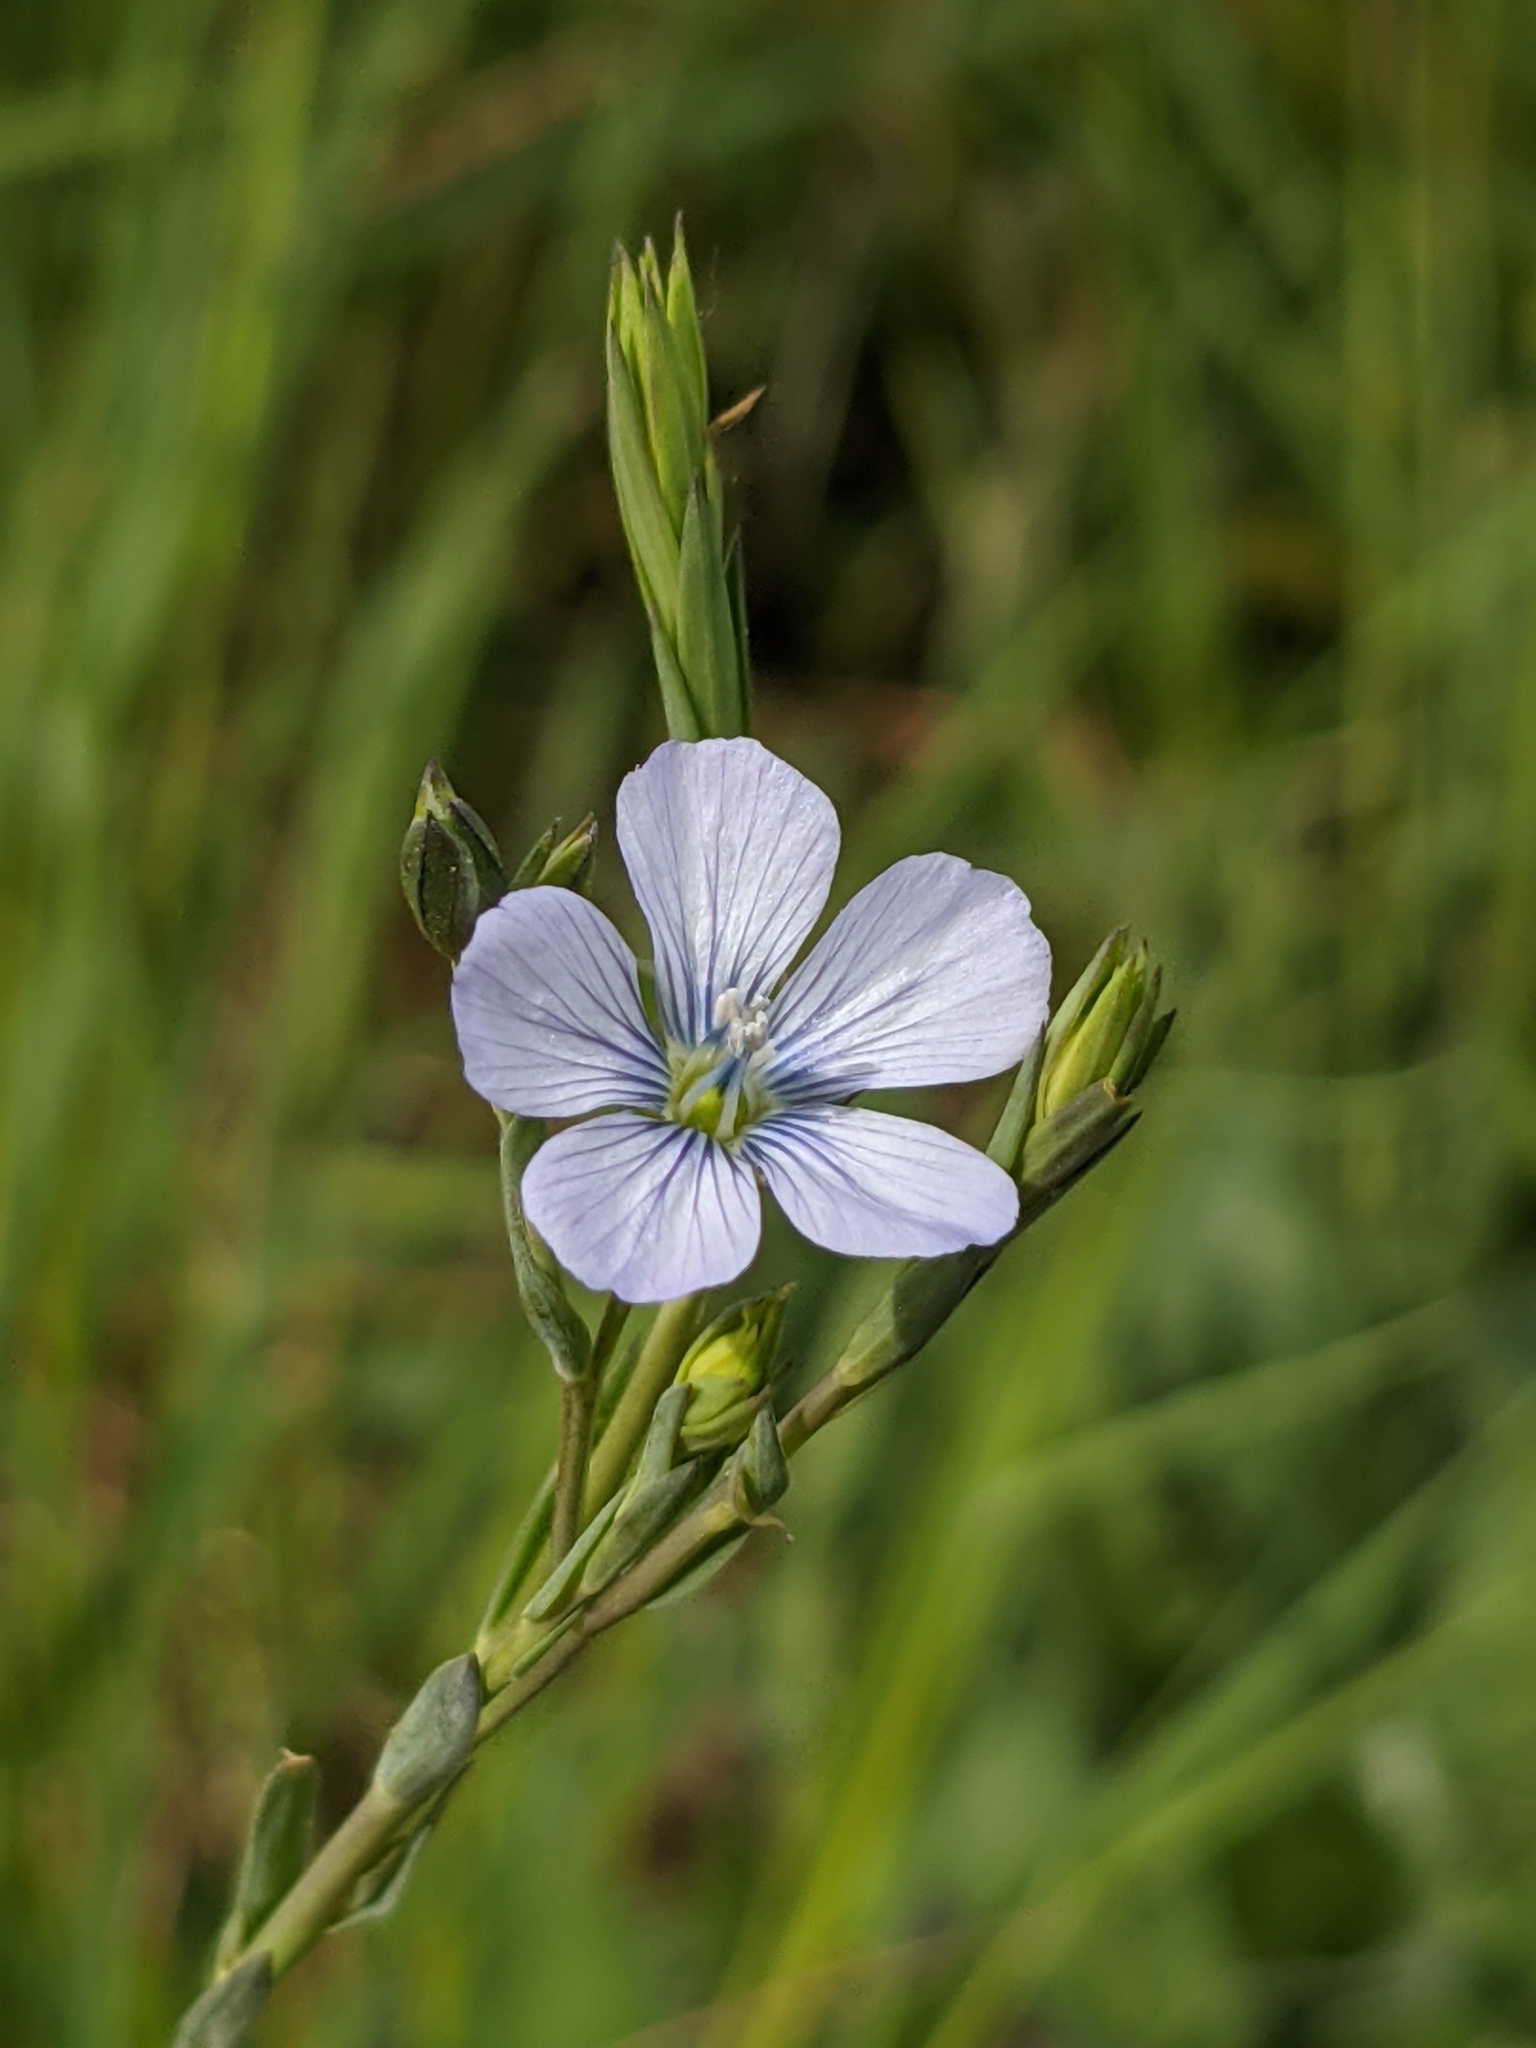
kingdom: Plantae
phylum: Tracheophyta
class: Magnoliopsida
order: Malpighiales
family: Linaceae
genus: Linum
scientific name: Linum usitatissimum
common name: Flax
